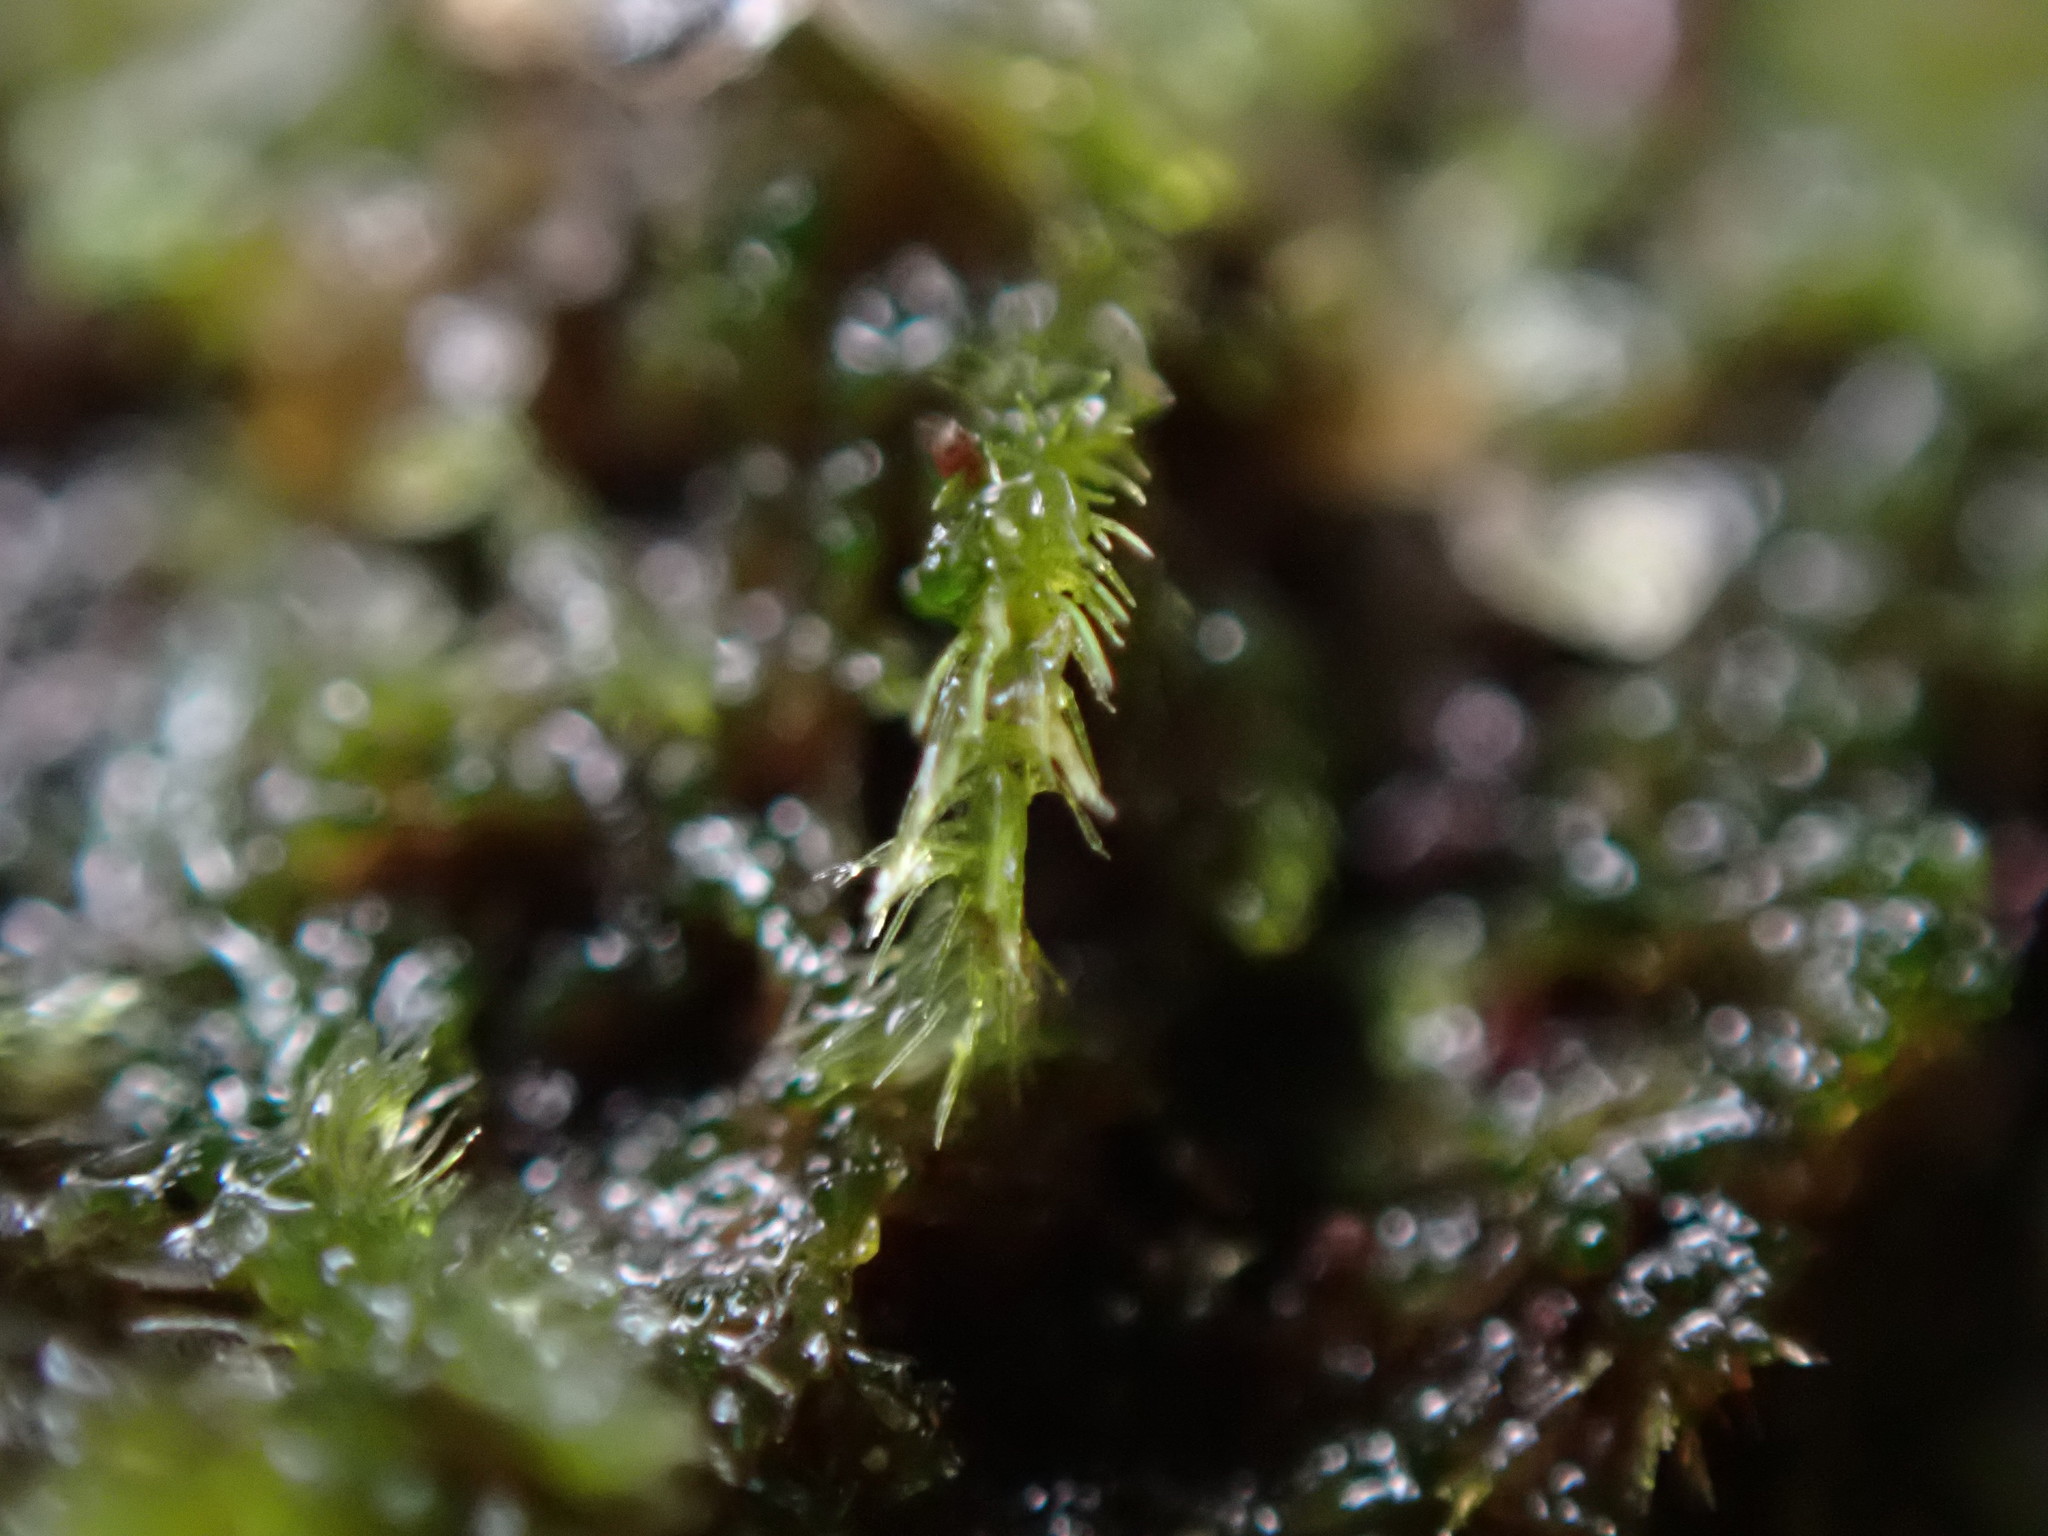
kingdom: Plantae
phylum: Marchantiophyta
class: Jungermanniopsida
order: Jungermanniales
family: Blepharostomataceae
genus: Blepharostoma
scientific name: Blepharostoma trichophyllum
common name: Hairy threadwort
